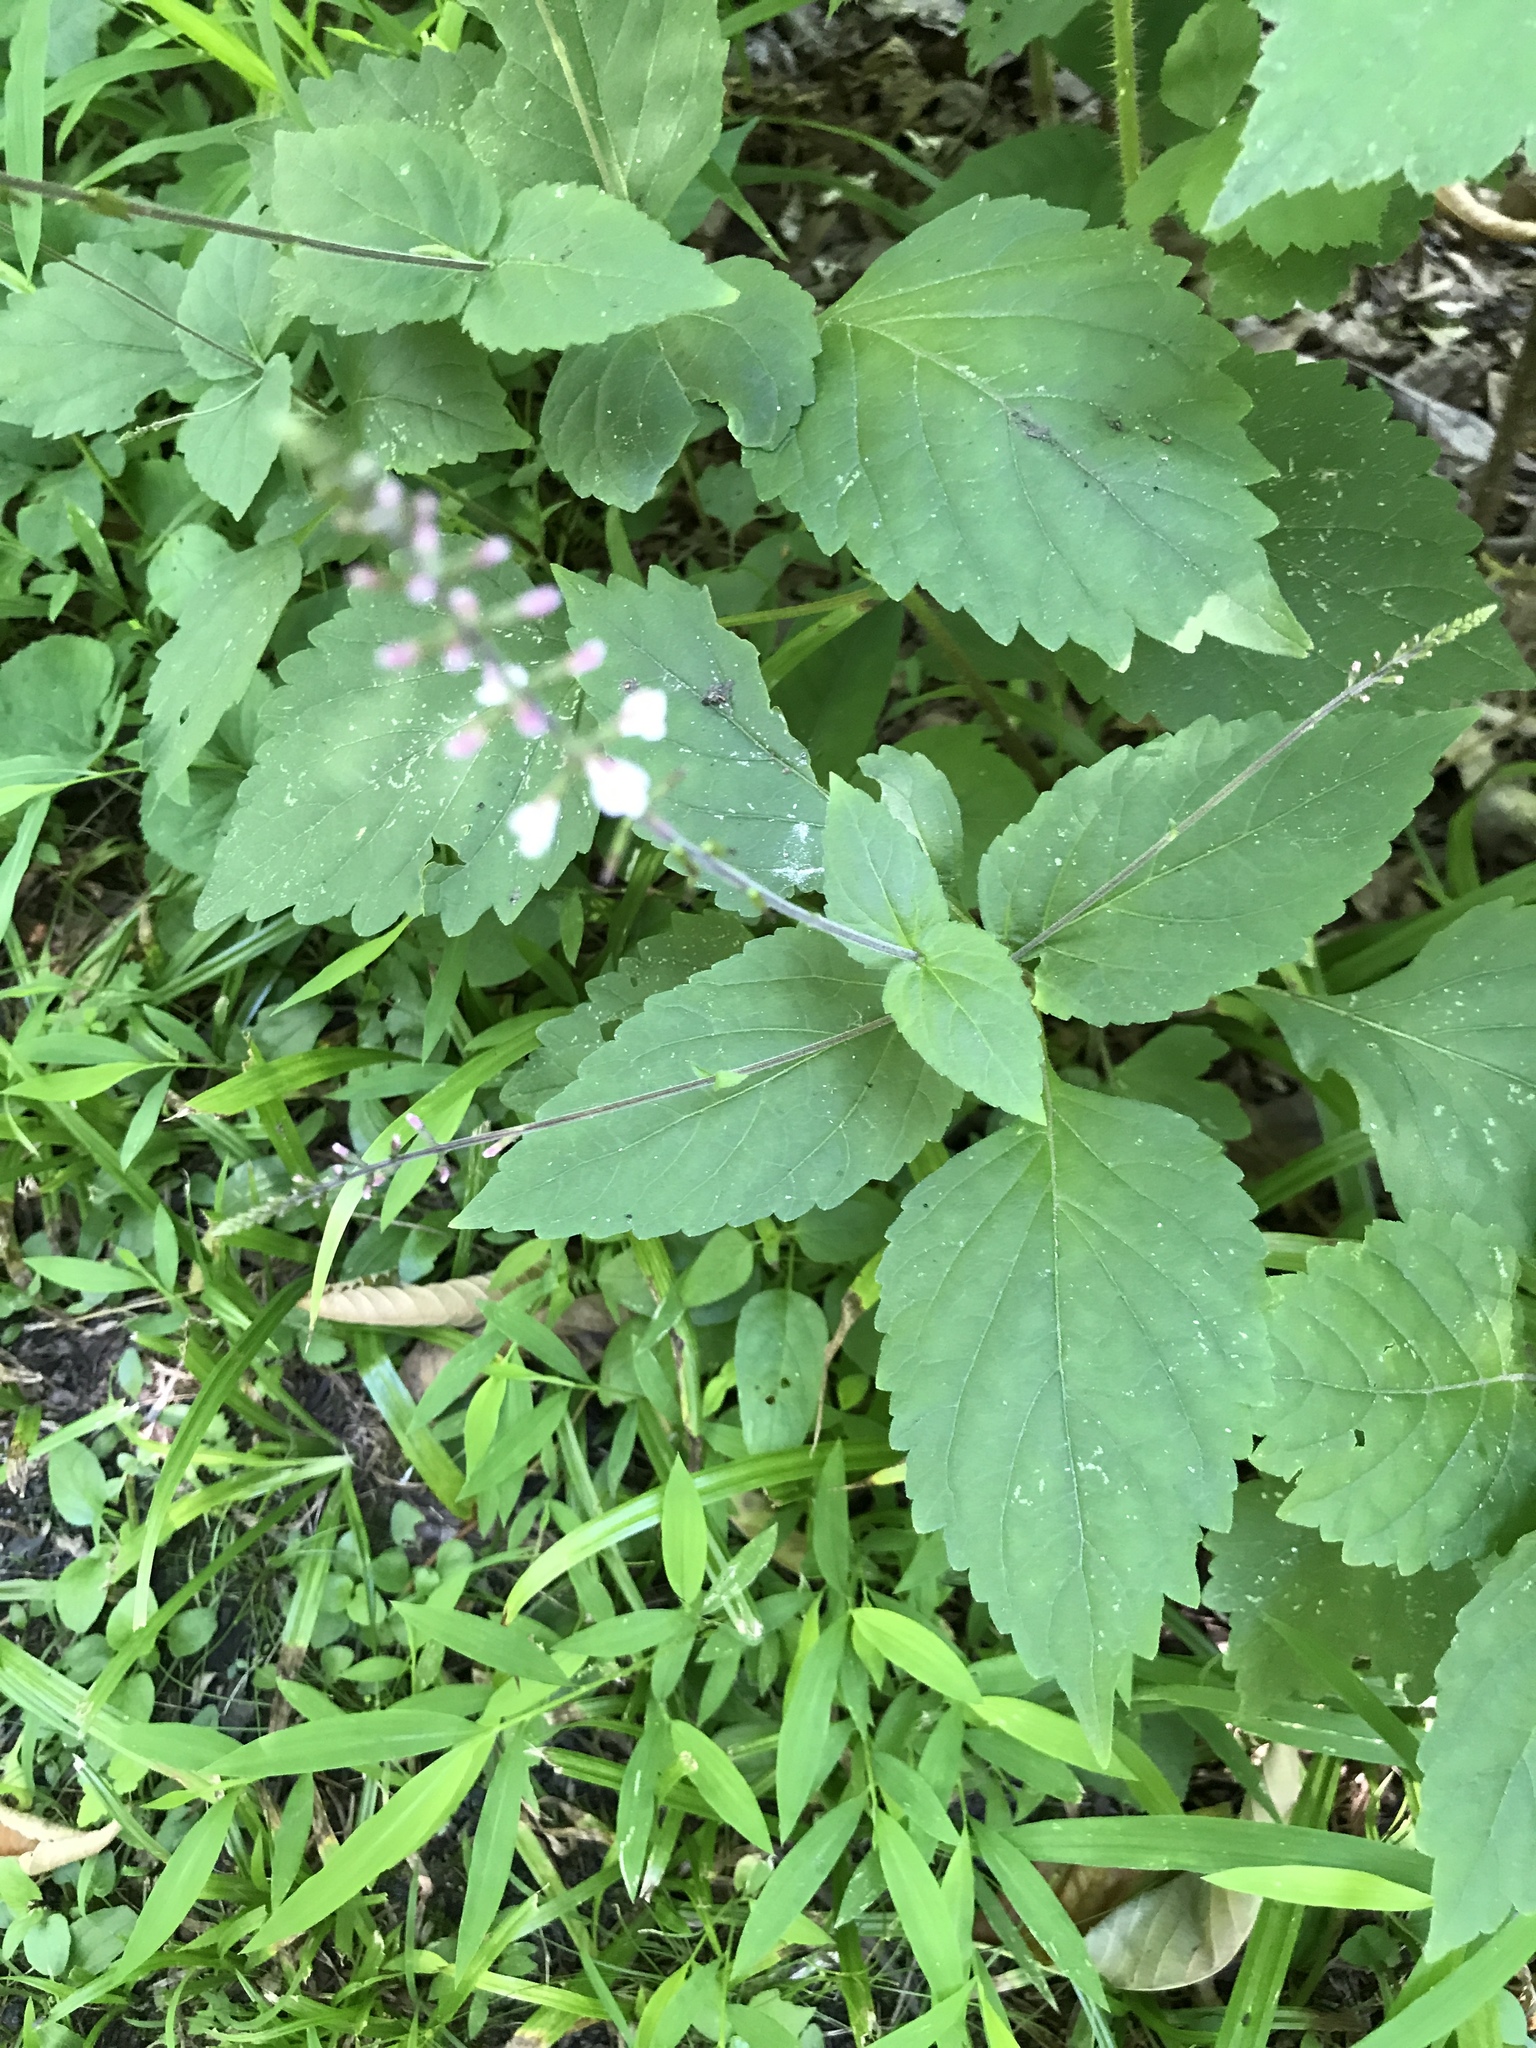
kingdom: Plantae
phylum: Tracheophyta
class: Magnoliopsida
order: Lamiales
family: Phrymaceae
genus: Phryma
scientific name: Phryma leptostachya
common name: American lopseed
